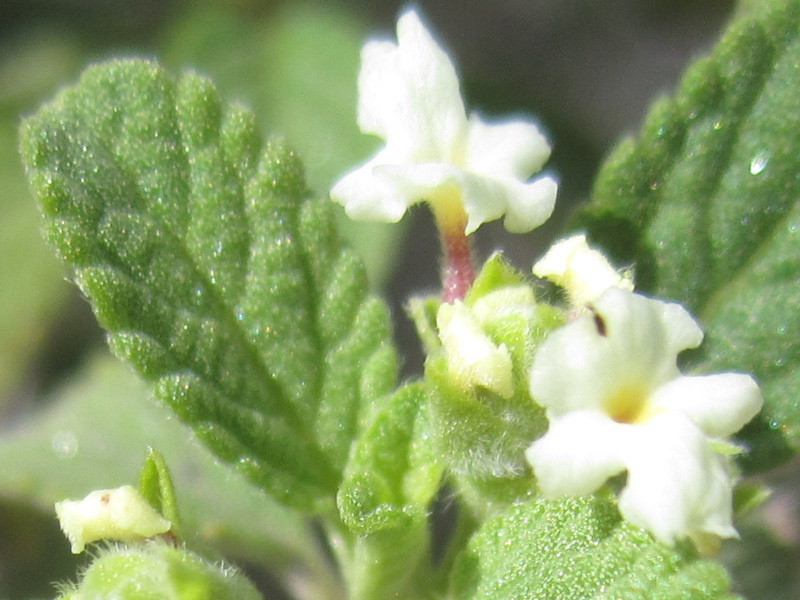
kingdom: Plantae
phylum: Tracheophyta
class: Magnoliopsida
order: Lamiales
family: Verbenaceae
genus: Lippia
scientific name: Lippia origanoides
